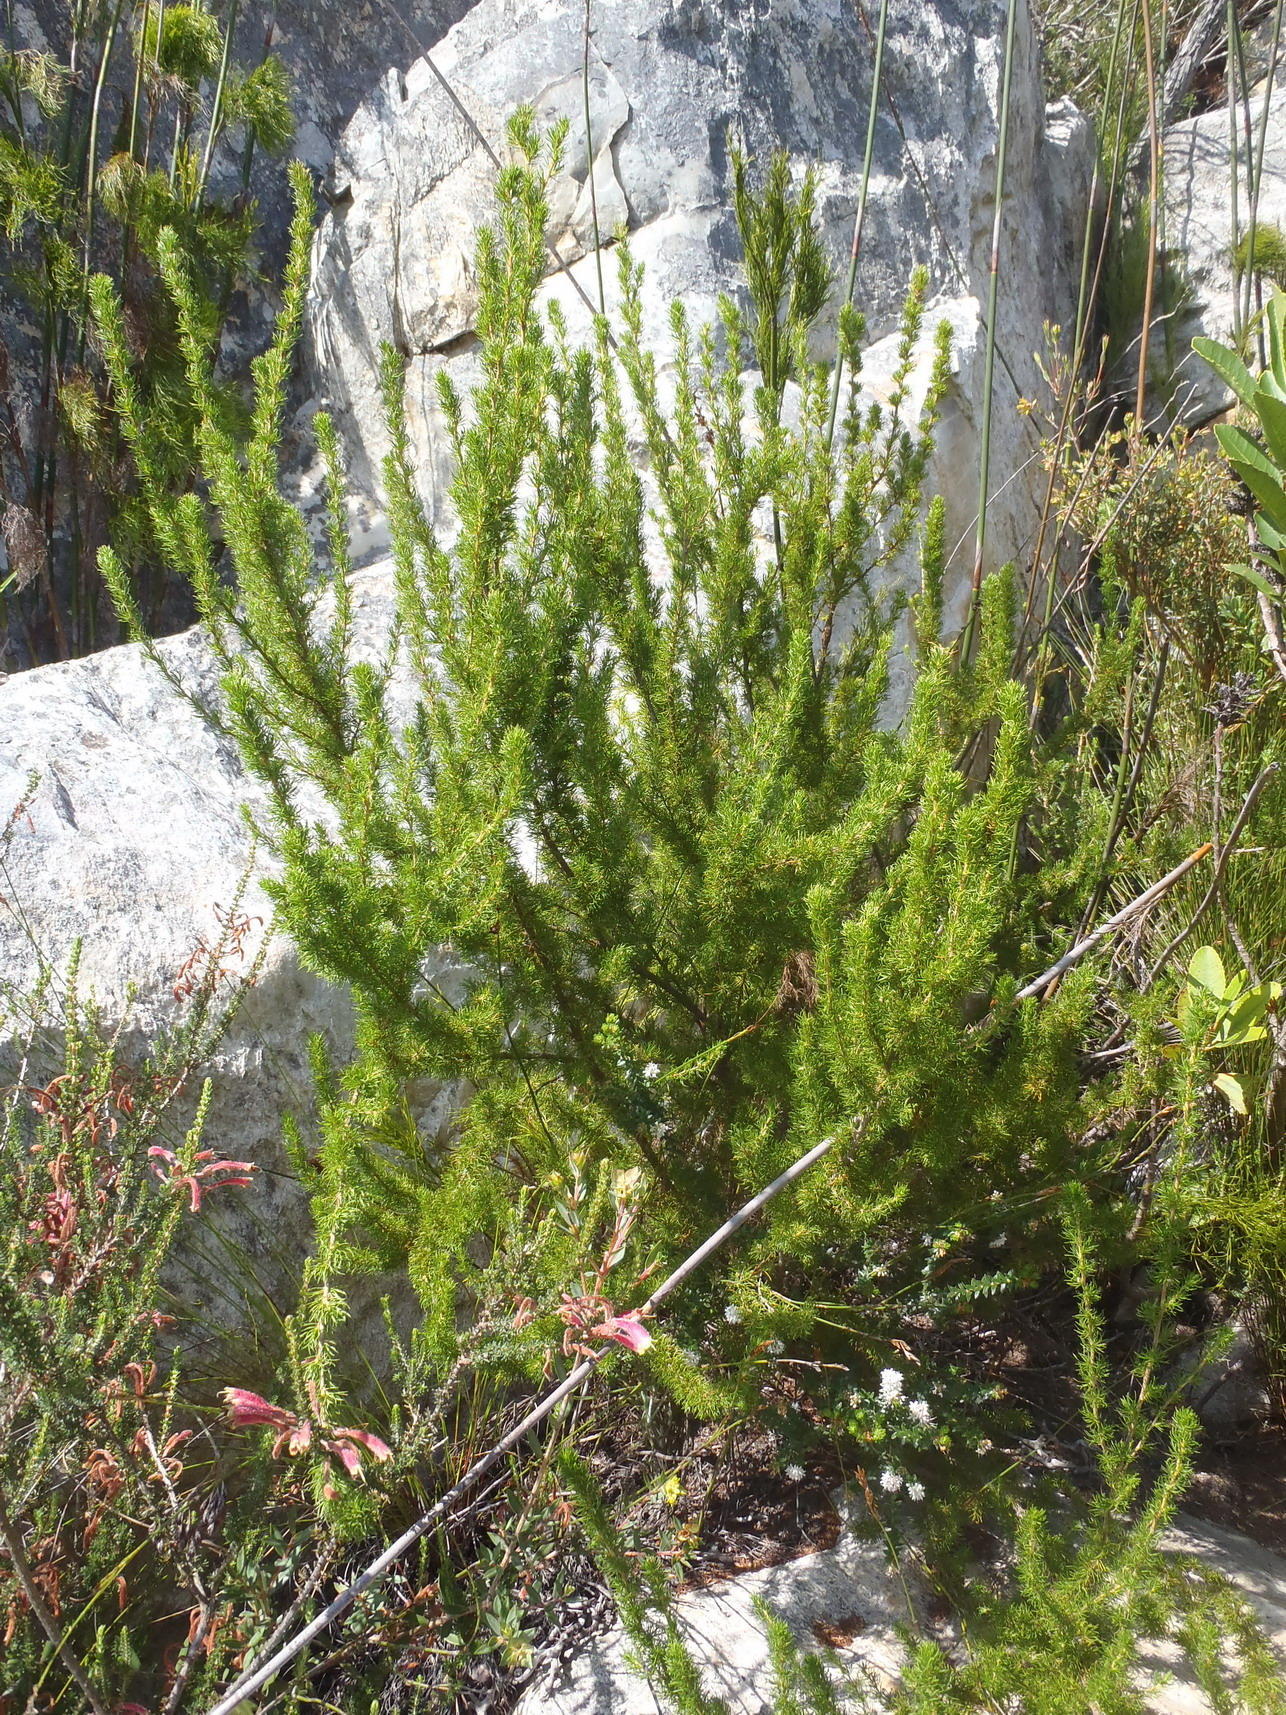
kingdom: Plantae
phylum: Tracheophyta
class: Magnoliopsida
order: Rosales
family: Rosaceae
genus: Cliffortia
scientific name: Cliffortia paucistaminea
